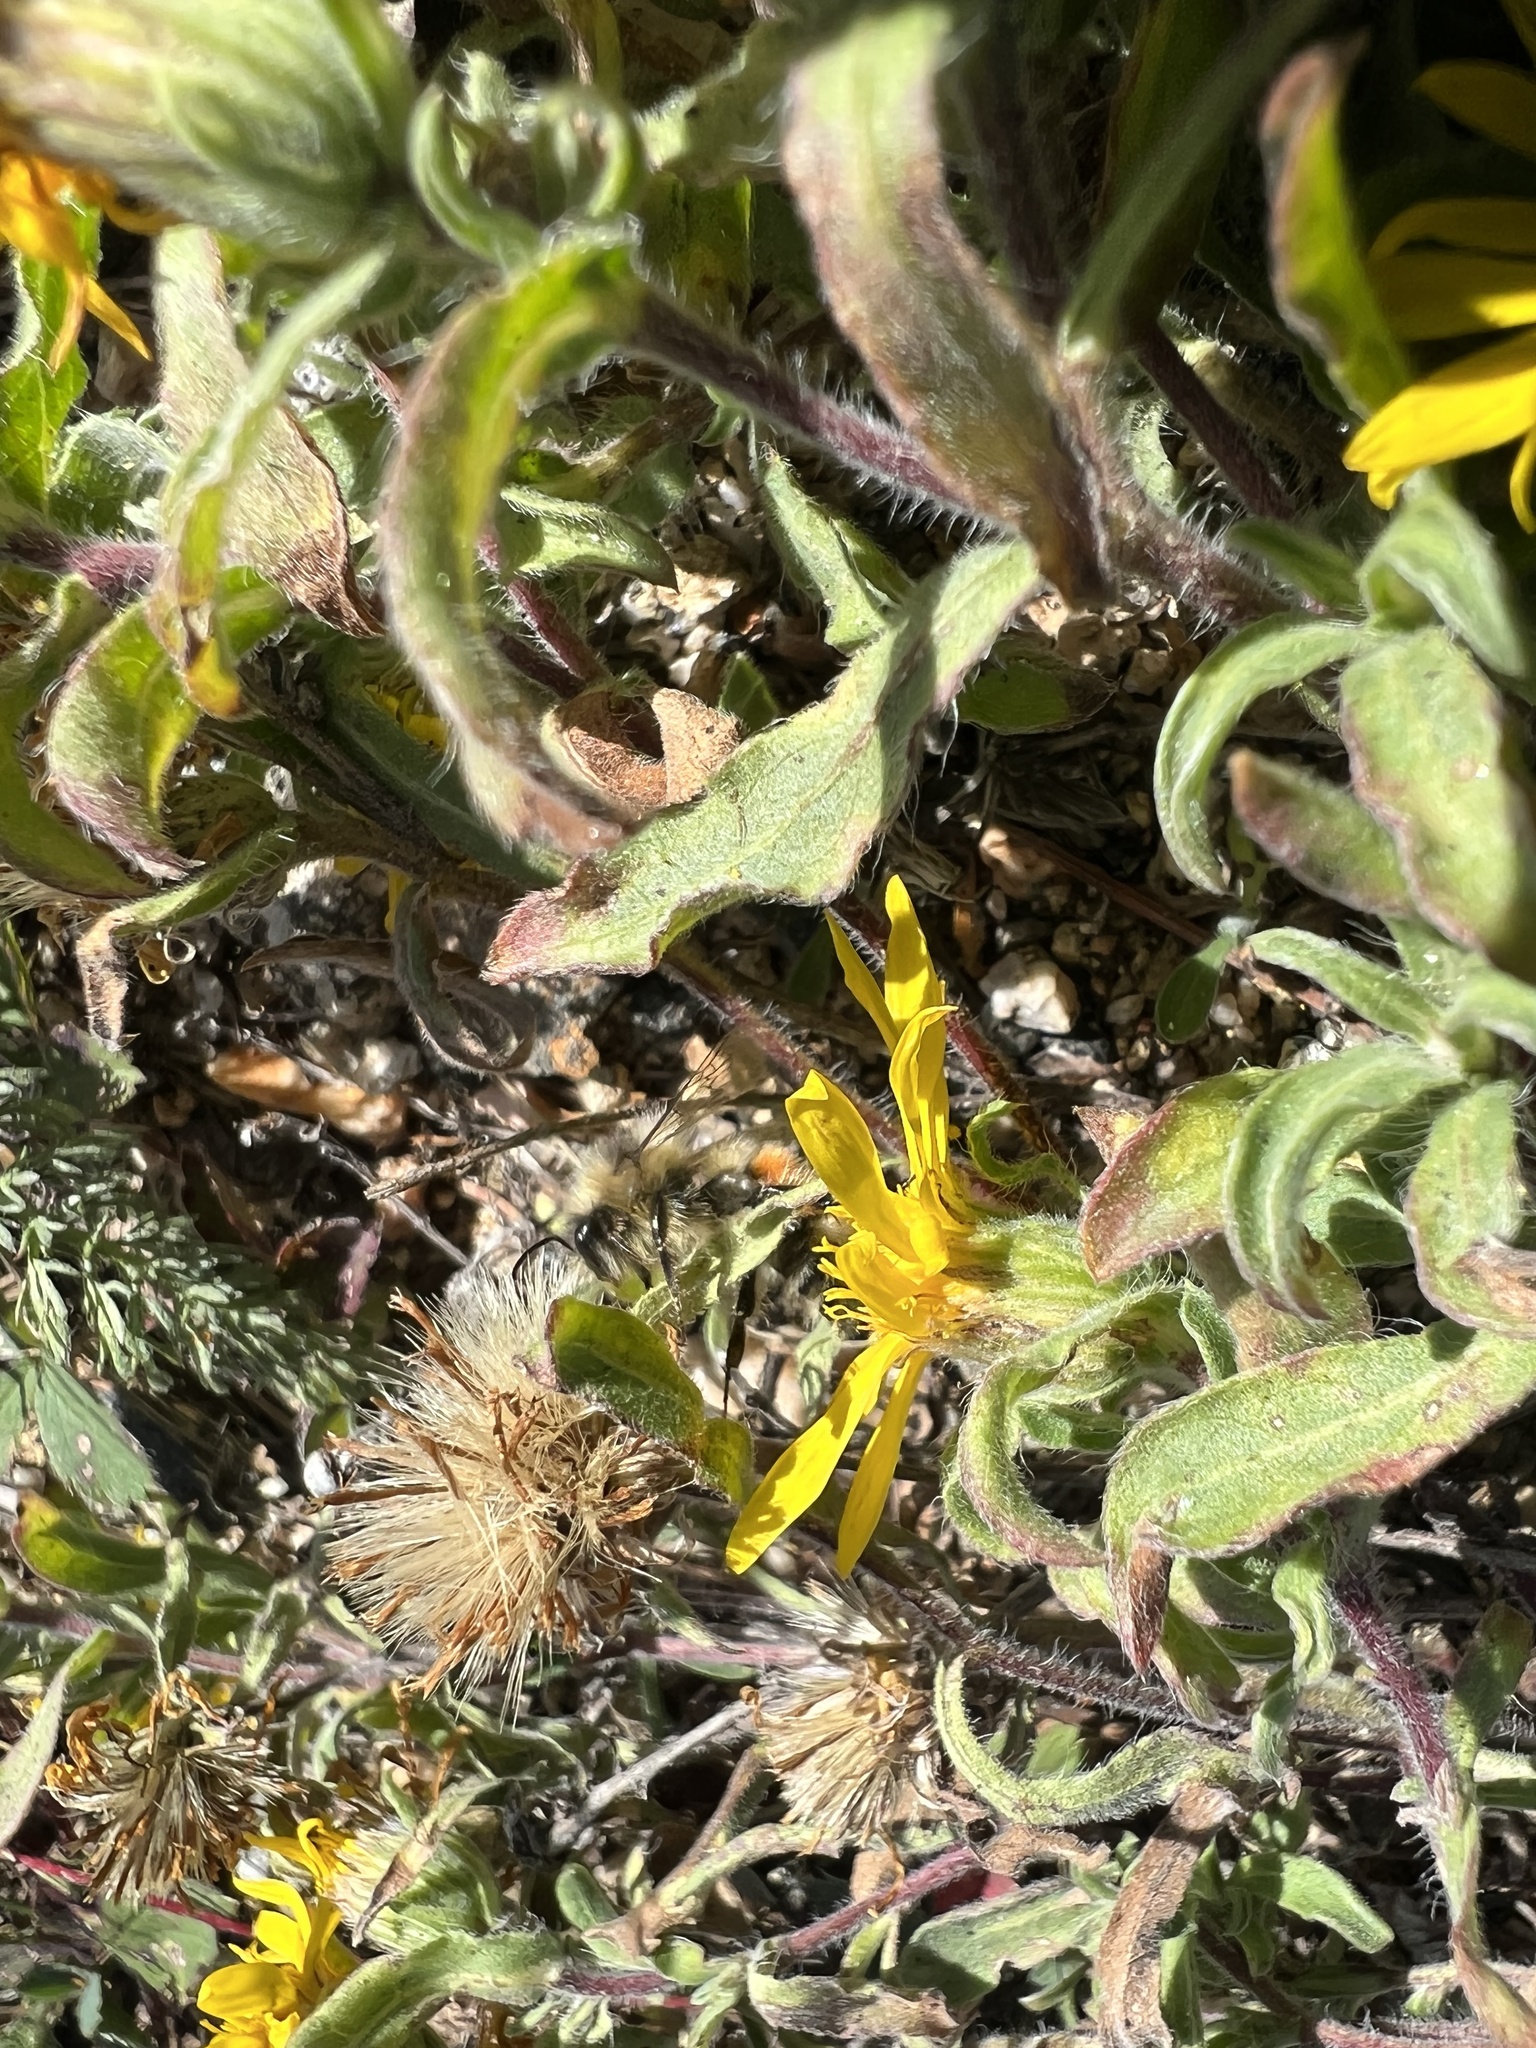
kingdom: Plantae
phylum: Tracheophyta
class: Magnoliopsida
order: Asterales
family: Asteraceae
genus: Heterotheca
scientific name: Heterotheca pumila
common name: Alpine golden-aster
